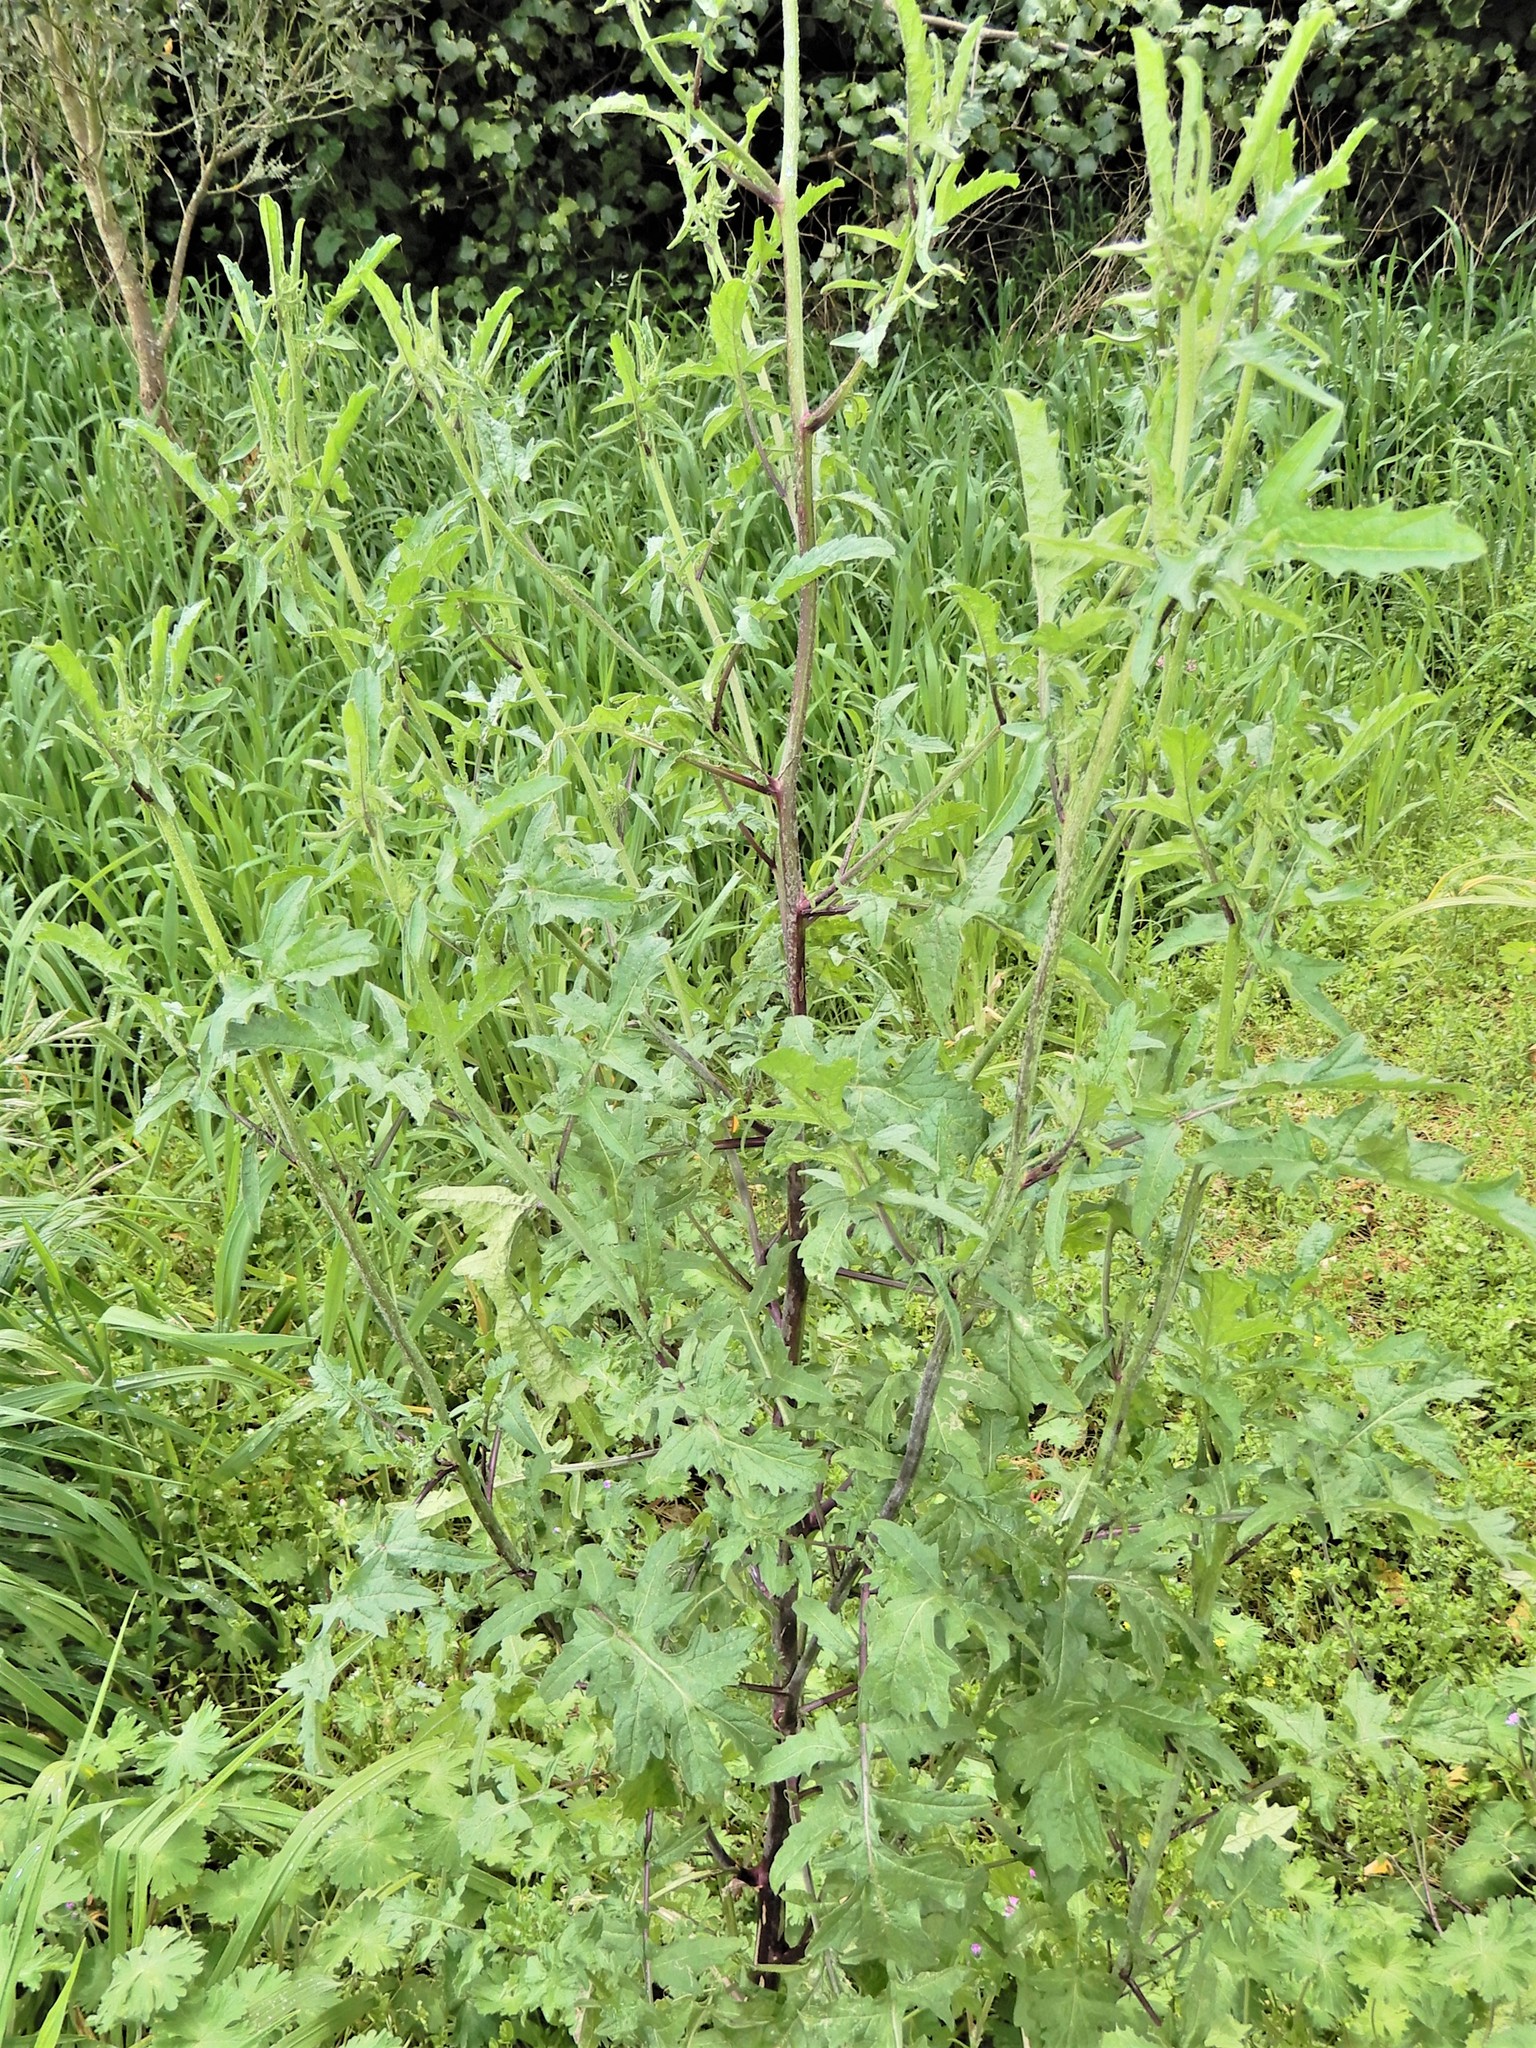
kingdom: Plantae
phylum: Tracheophyta
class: Magnoliopsida
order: Brassicales
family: Brassicaceae
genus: Sisymbrium
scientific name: Sisymbrium officinale
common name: Hedge mustard
